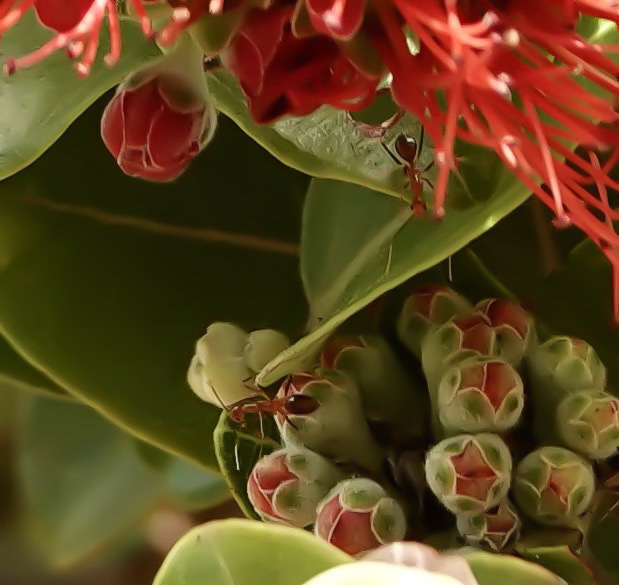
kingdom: Animalia
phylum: Arthropoda
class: Insecta
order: Hymenoptera
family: Formicidae
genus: Anoplolepis
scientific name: Anoplolepis gracilipes
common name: Ant
